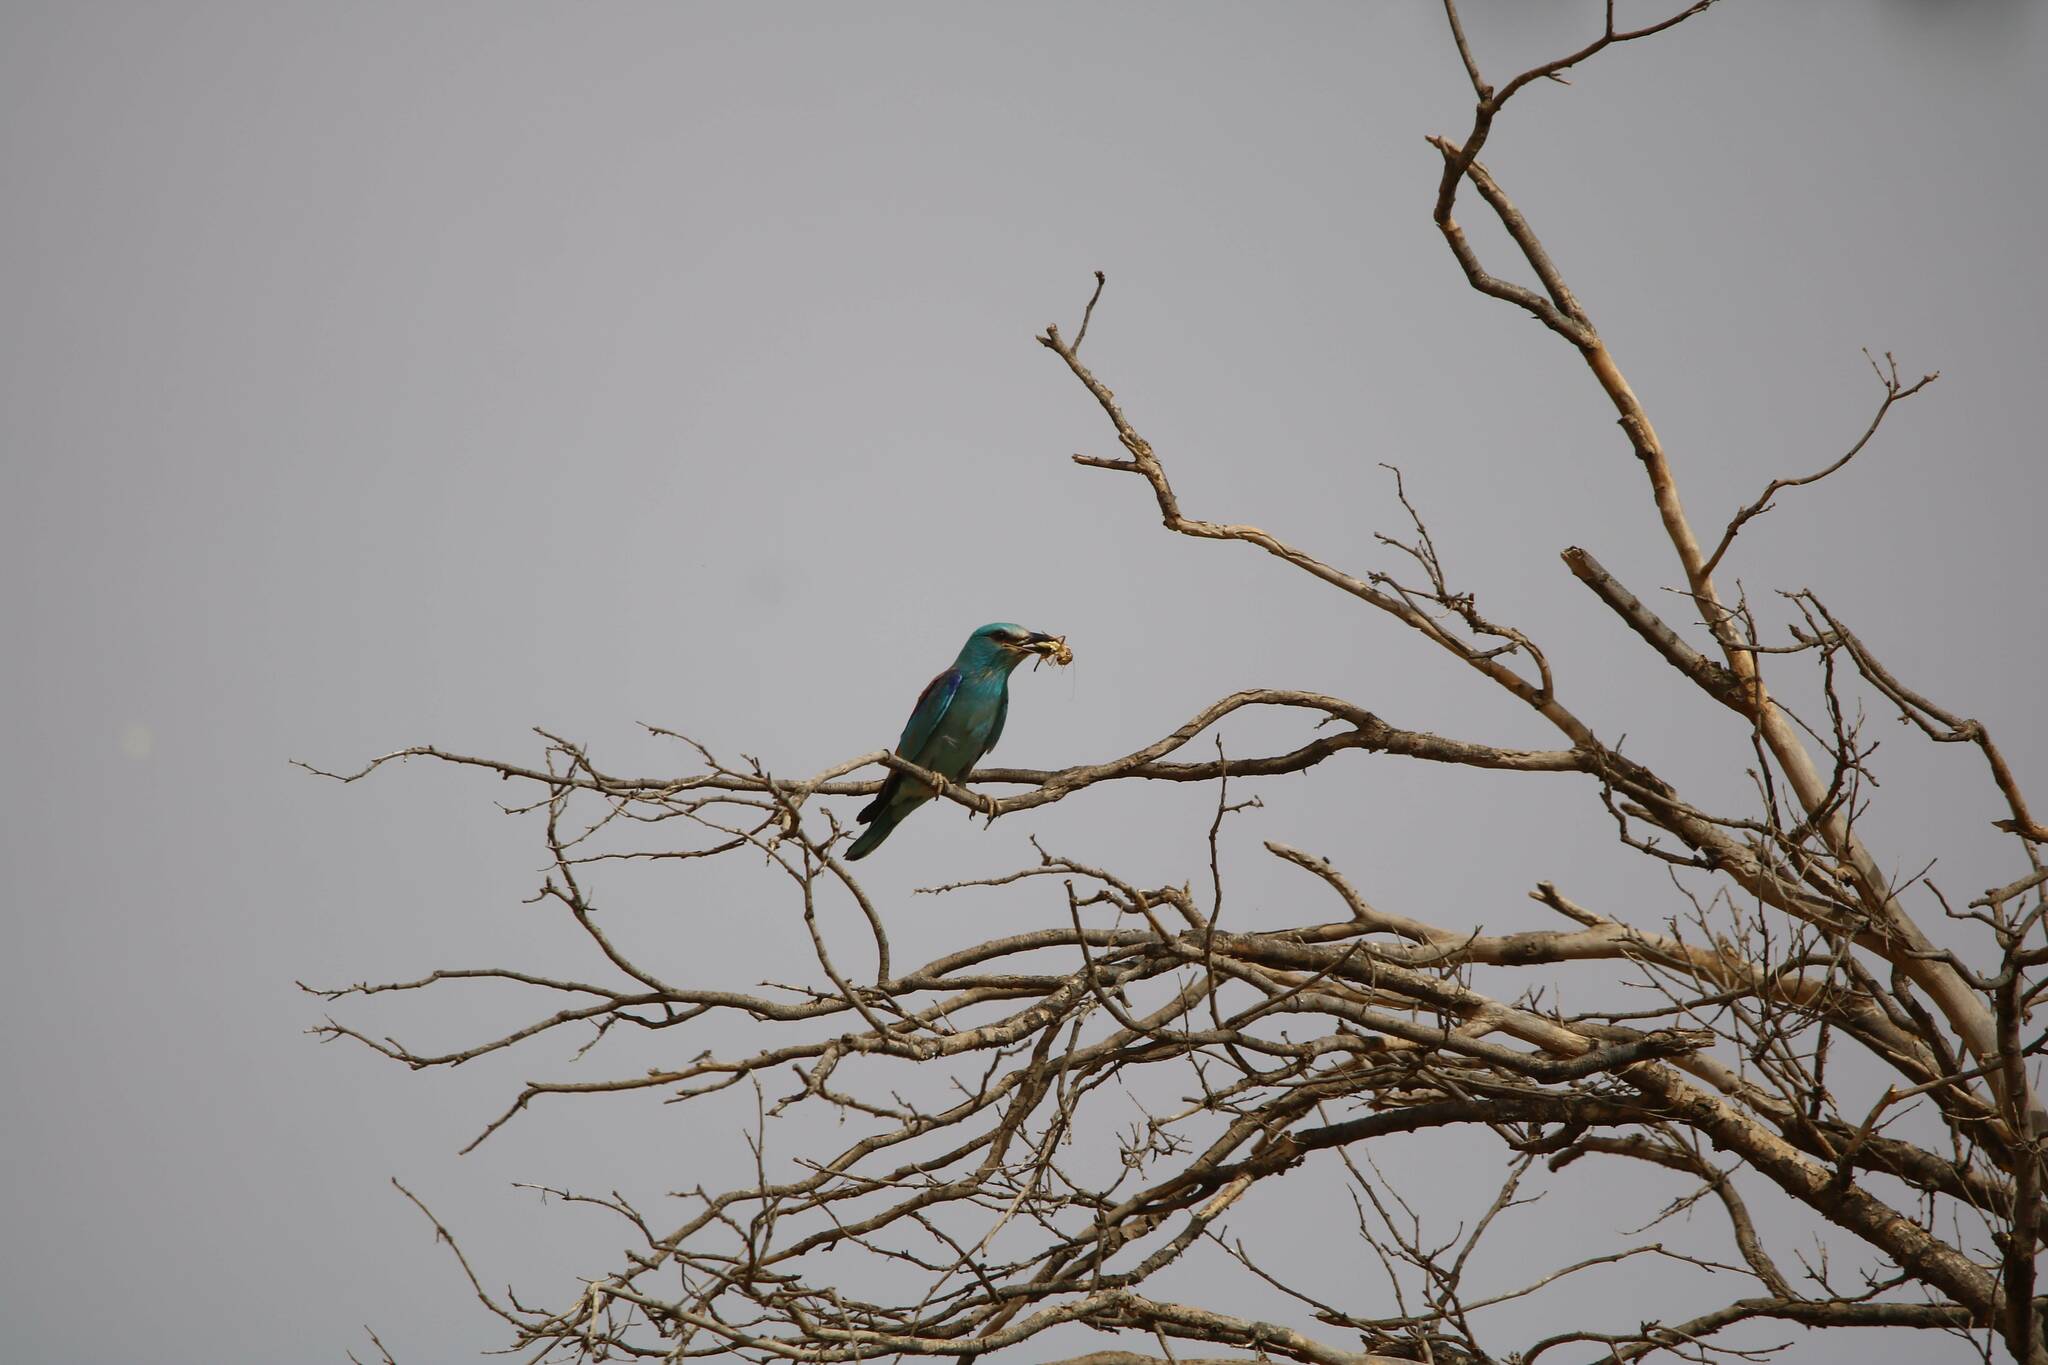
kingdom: Animalia
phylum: Chordata
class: Aves
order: Coraciiformes
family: Coraciidae
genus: Coracias
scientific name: Coracias garrulus
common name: European roller
